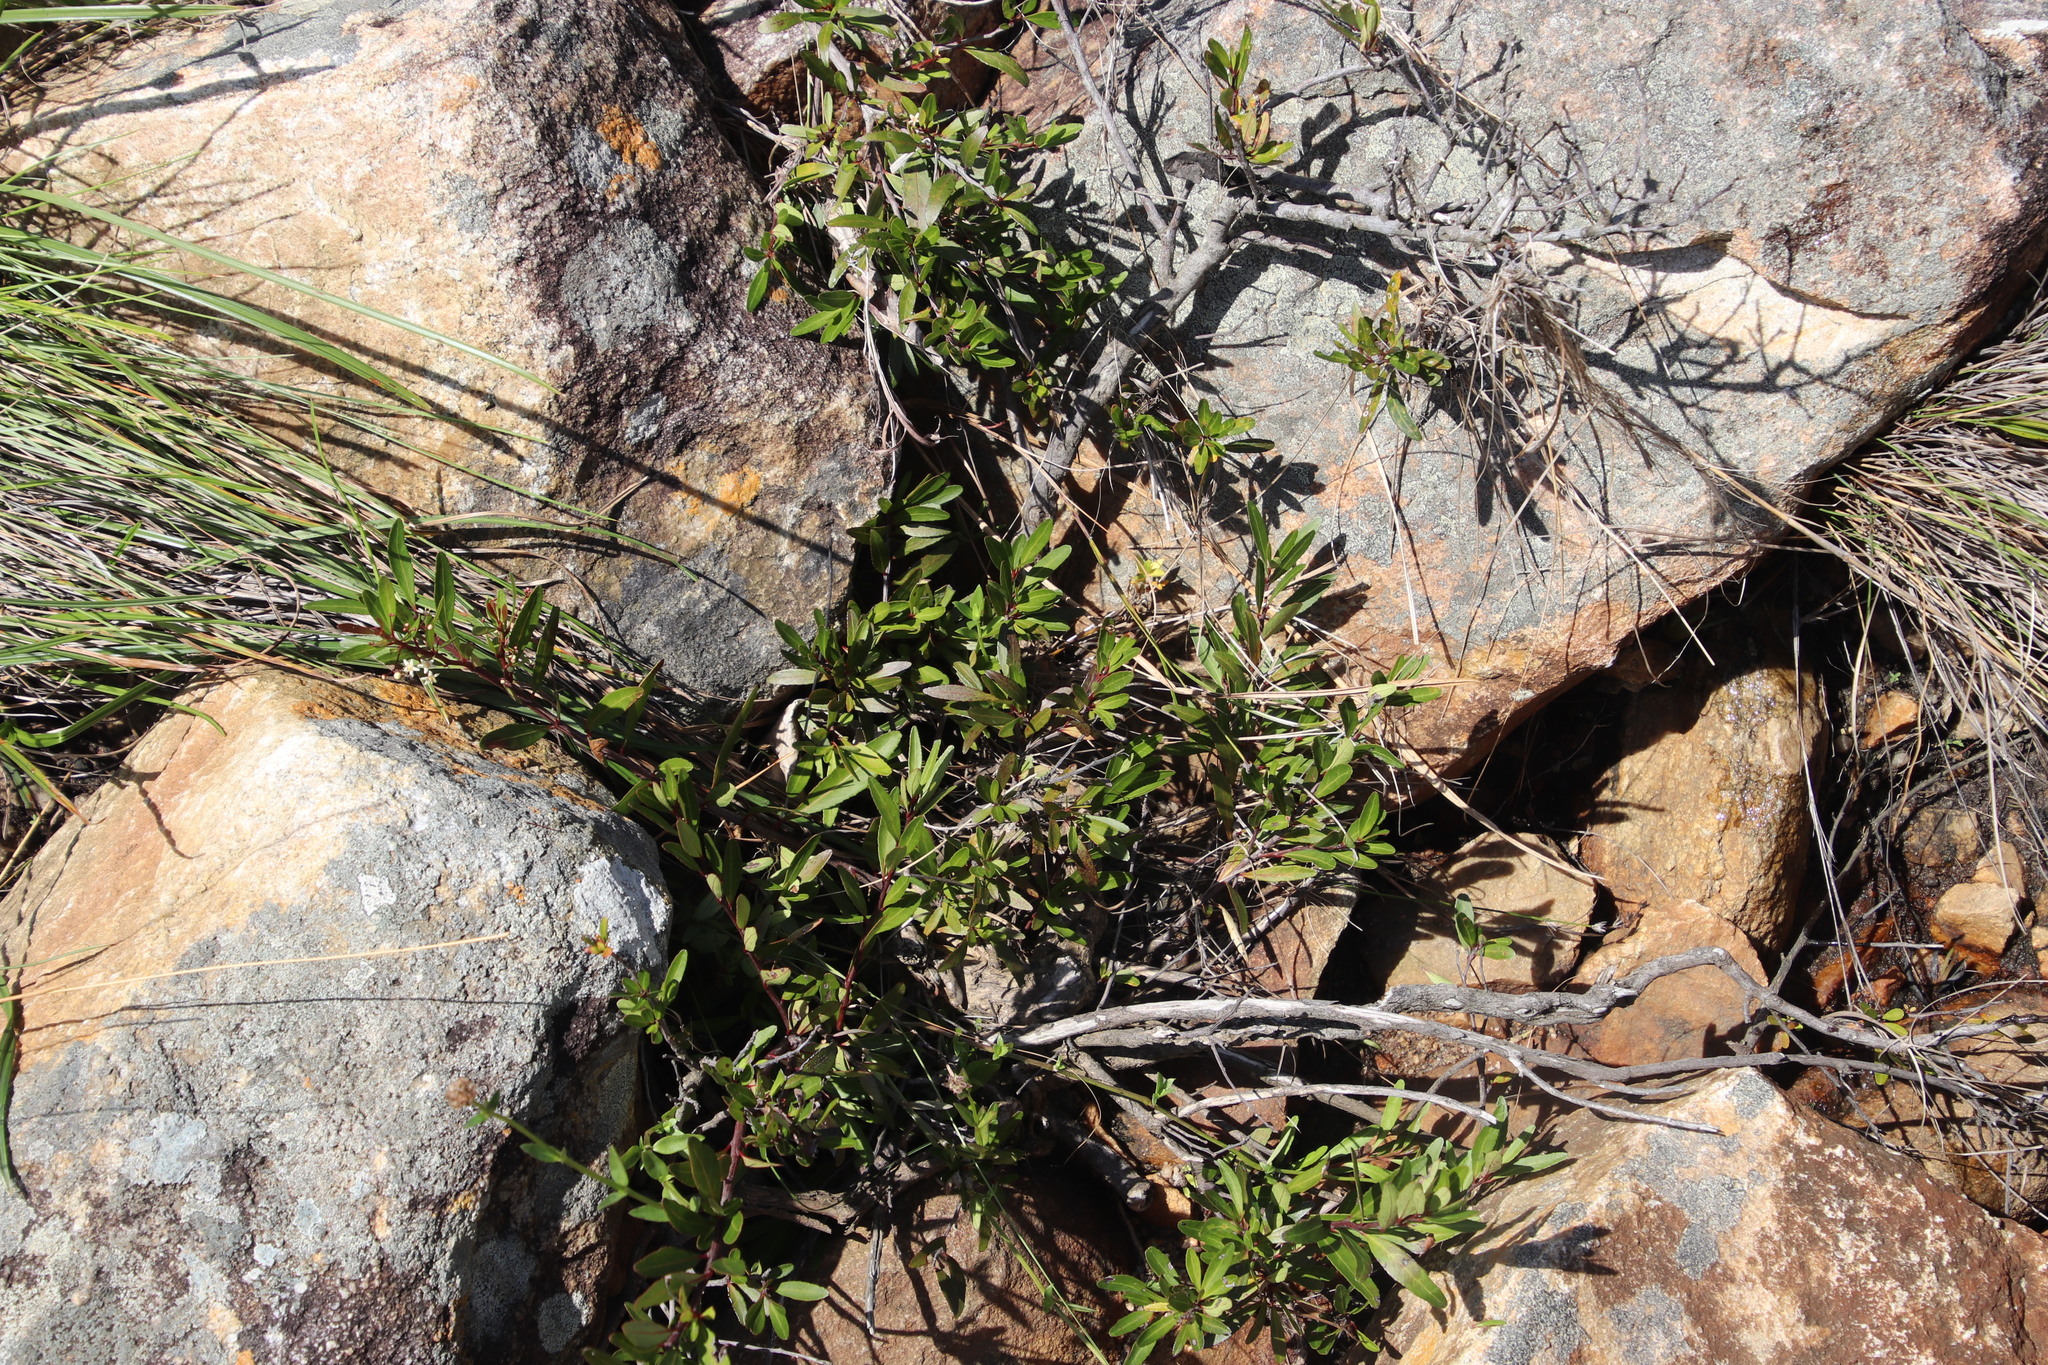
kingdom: Plantae
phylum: Tracheophyta
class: Magnoliopsida
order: Celastrales
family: Celastraceae
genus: Gymnosporia
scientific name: Gymnosporia bachmannii
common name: Willow koko tree
